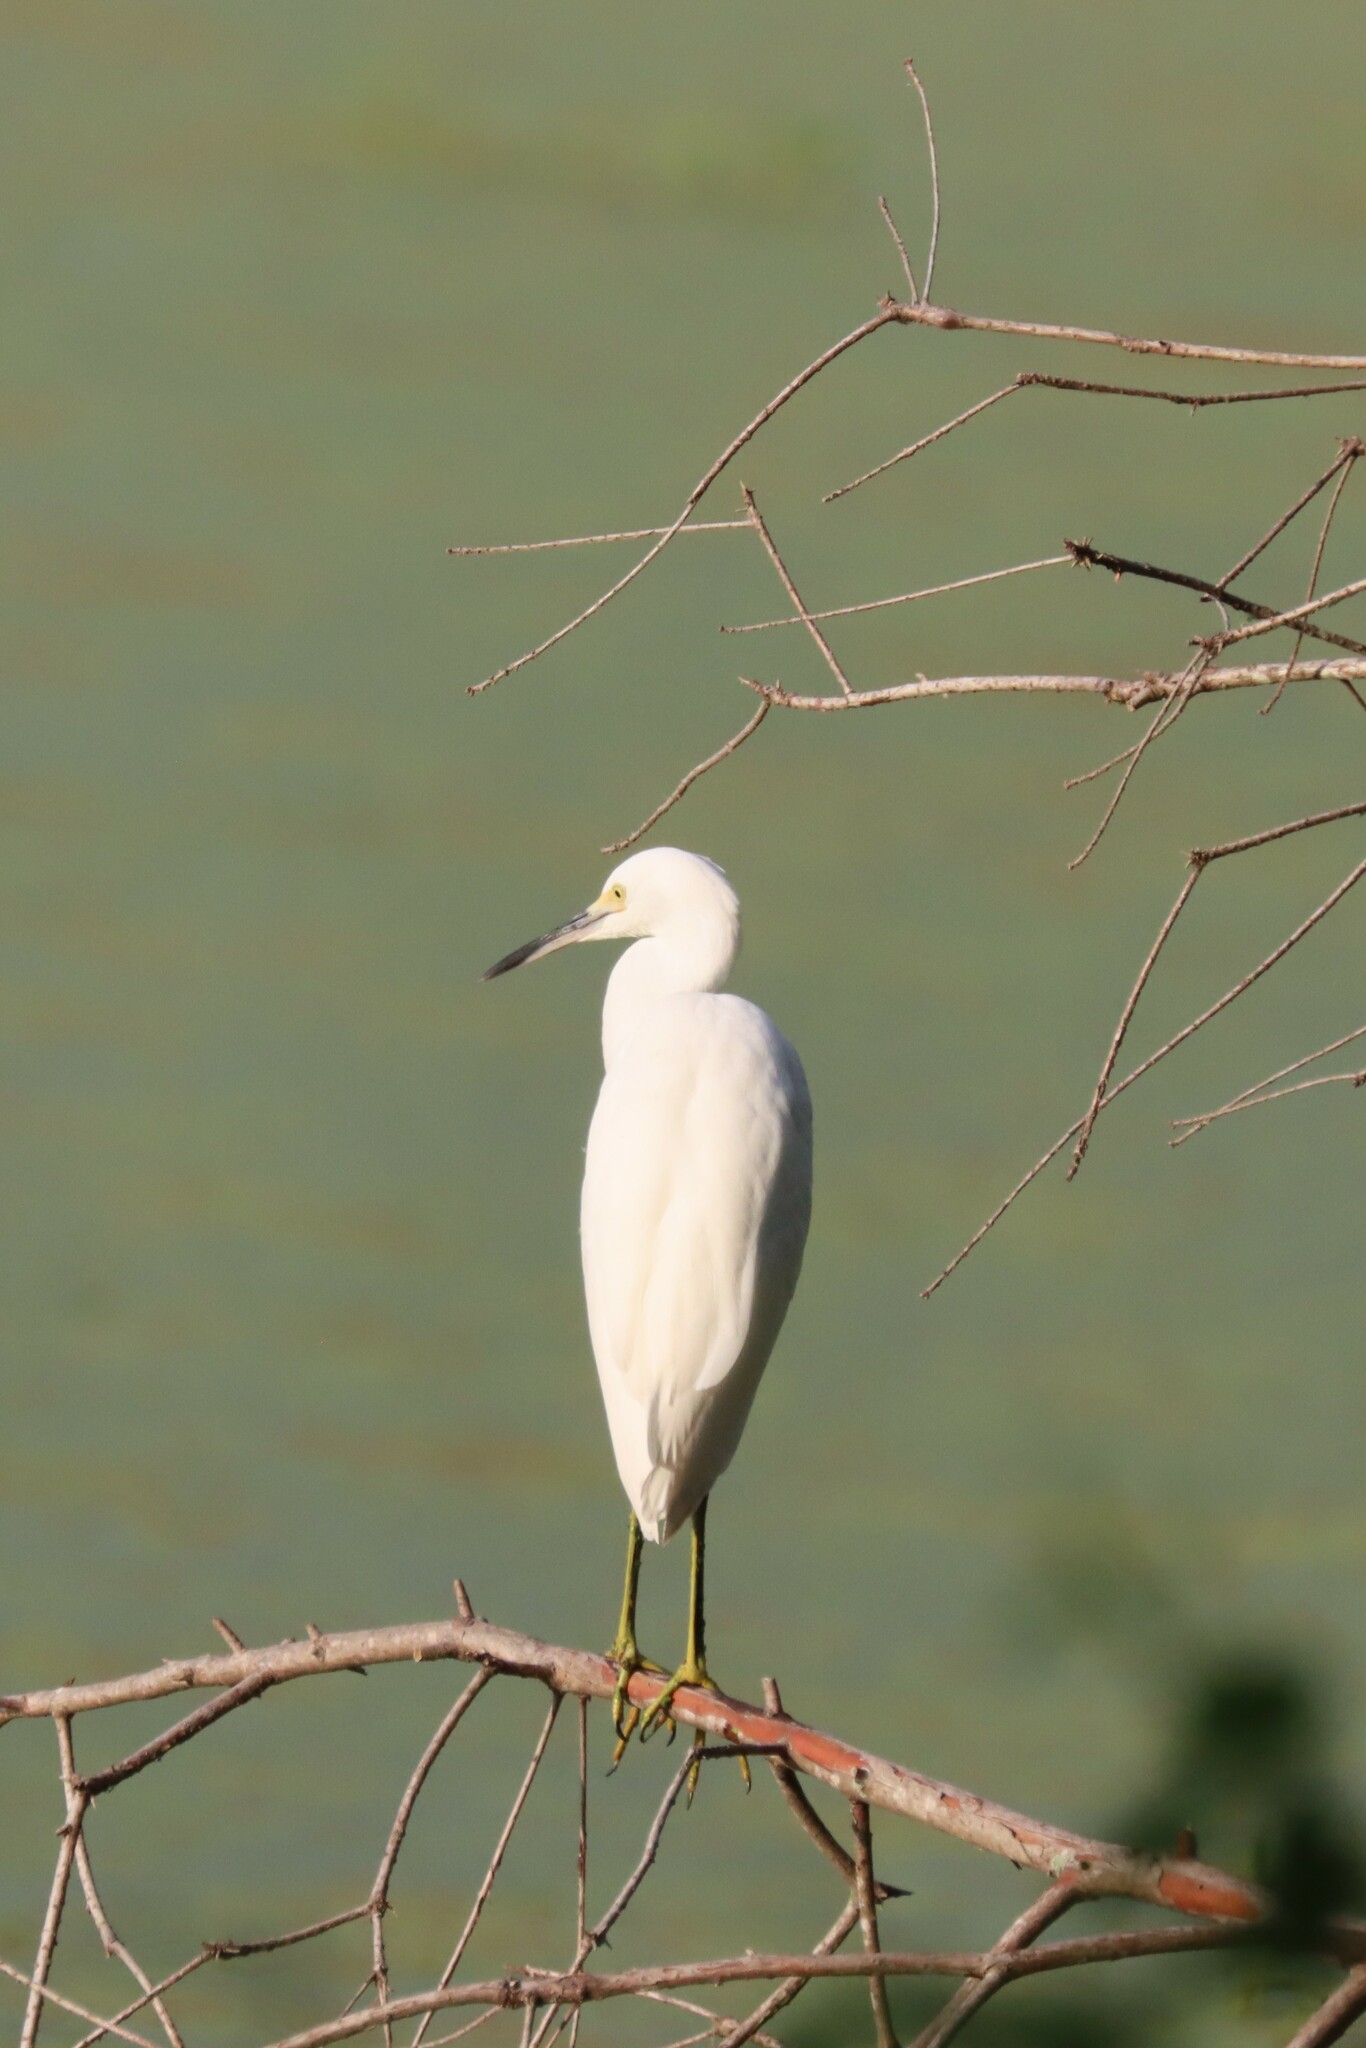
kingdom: Animalia
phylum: Chordata
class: Aves
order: Pelecaniformes
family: Ardeidae
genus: Egretta
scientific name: Egretta thula
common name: Snowy egret
